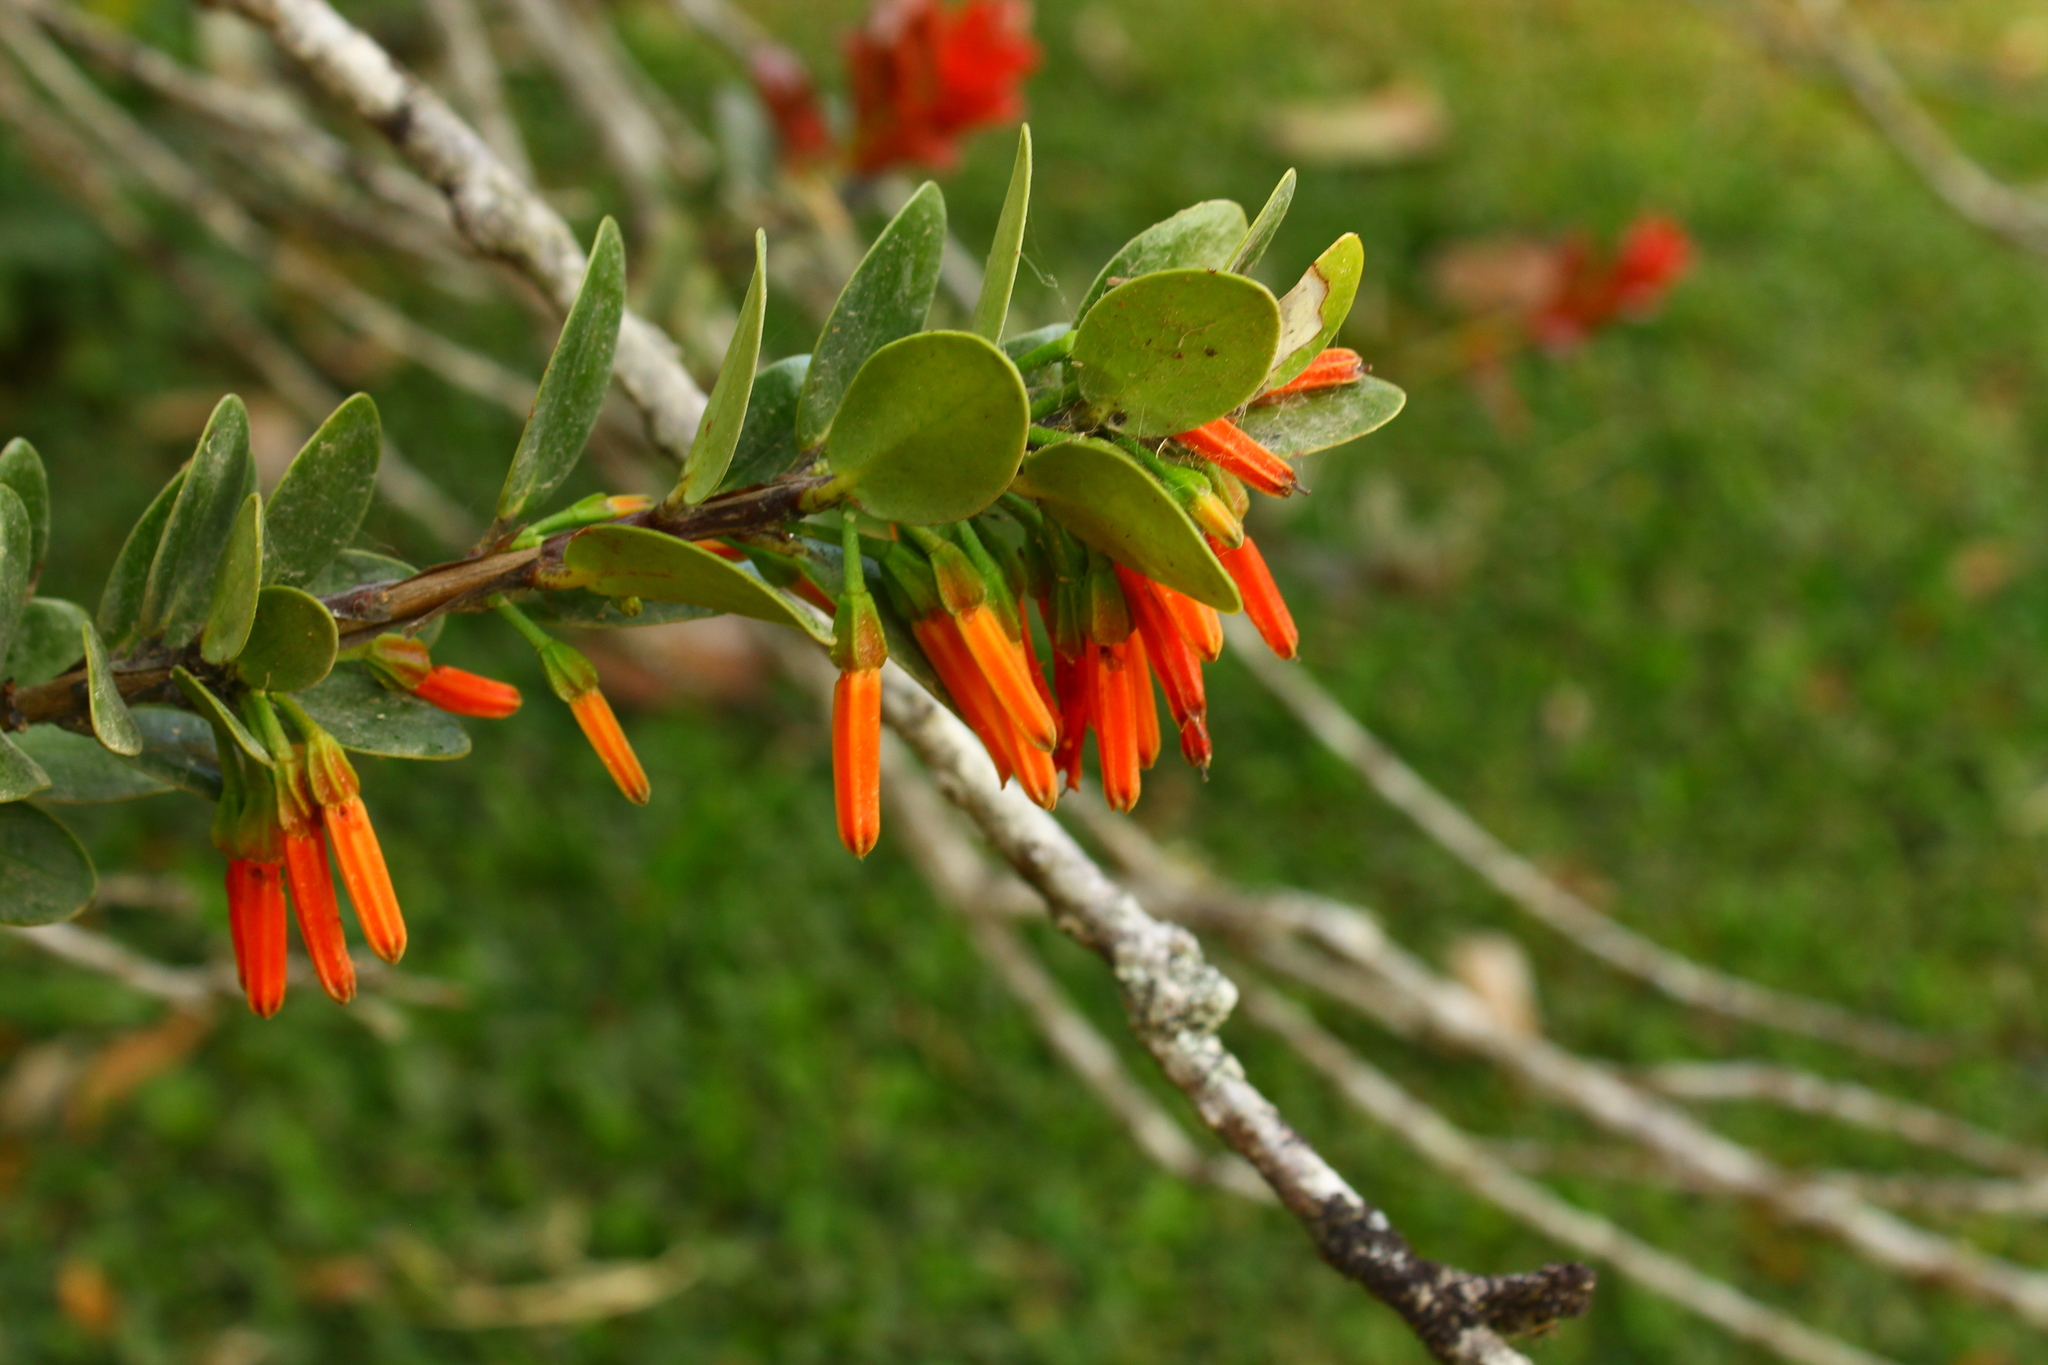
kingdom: Plantae
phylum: Tracheophyta
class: Magnoliopsida
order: Ericales
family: Ericaceae
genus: Macleania
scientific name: Macleania insignis
